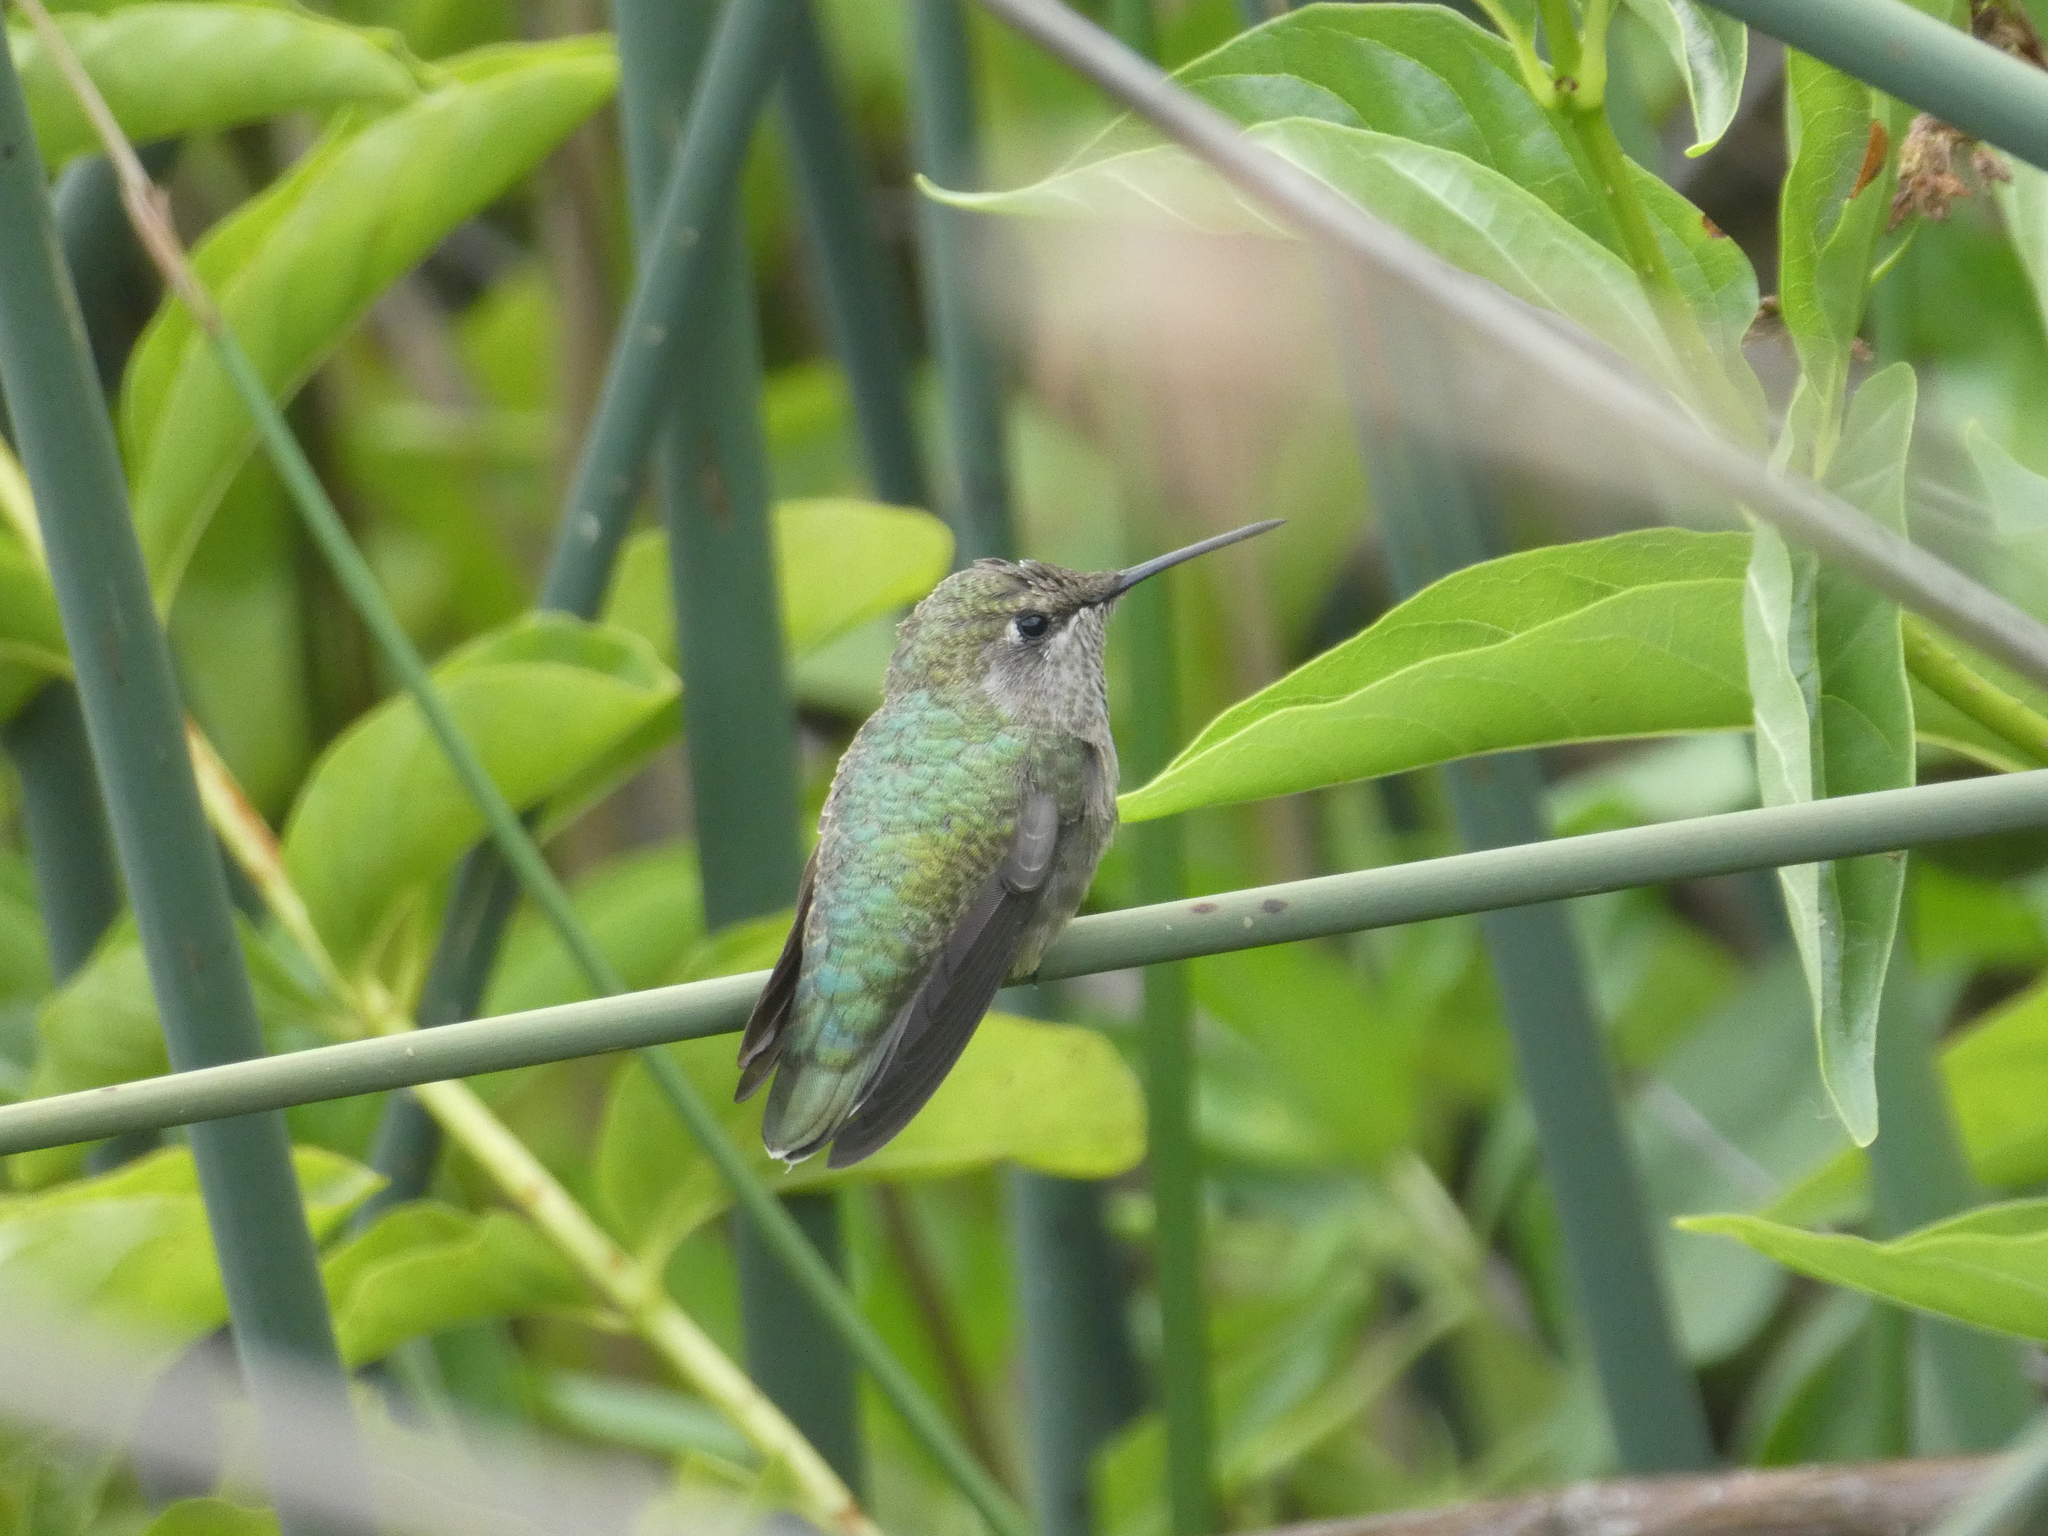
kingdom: Animalia
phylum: Chordata
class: Aves
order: Apodiformes
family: Trochilidae
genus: Calypte
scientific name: Calypte anna
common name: Anna's hummingbird
